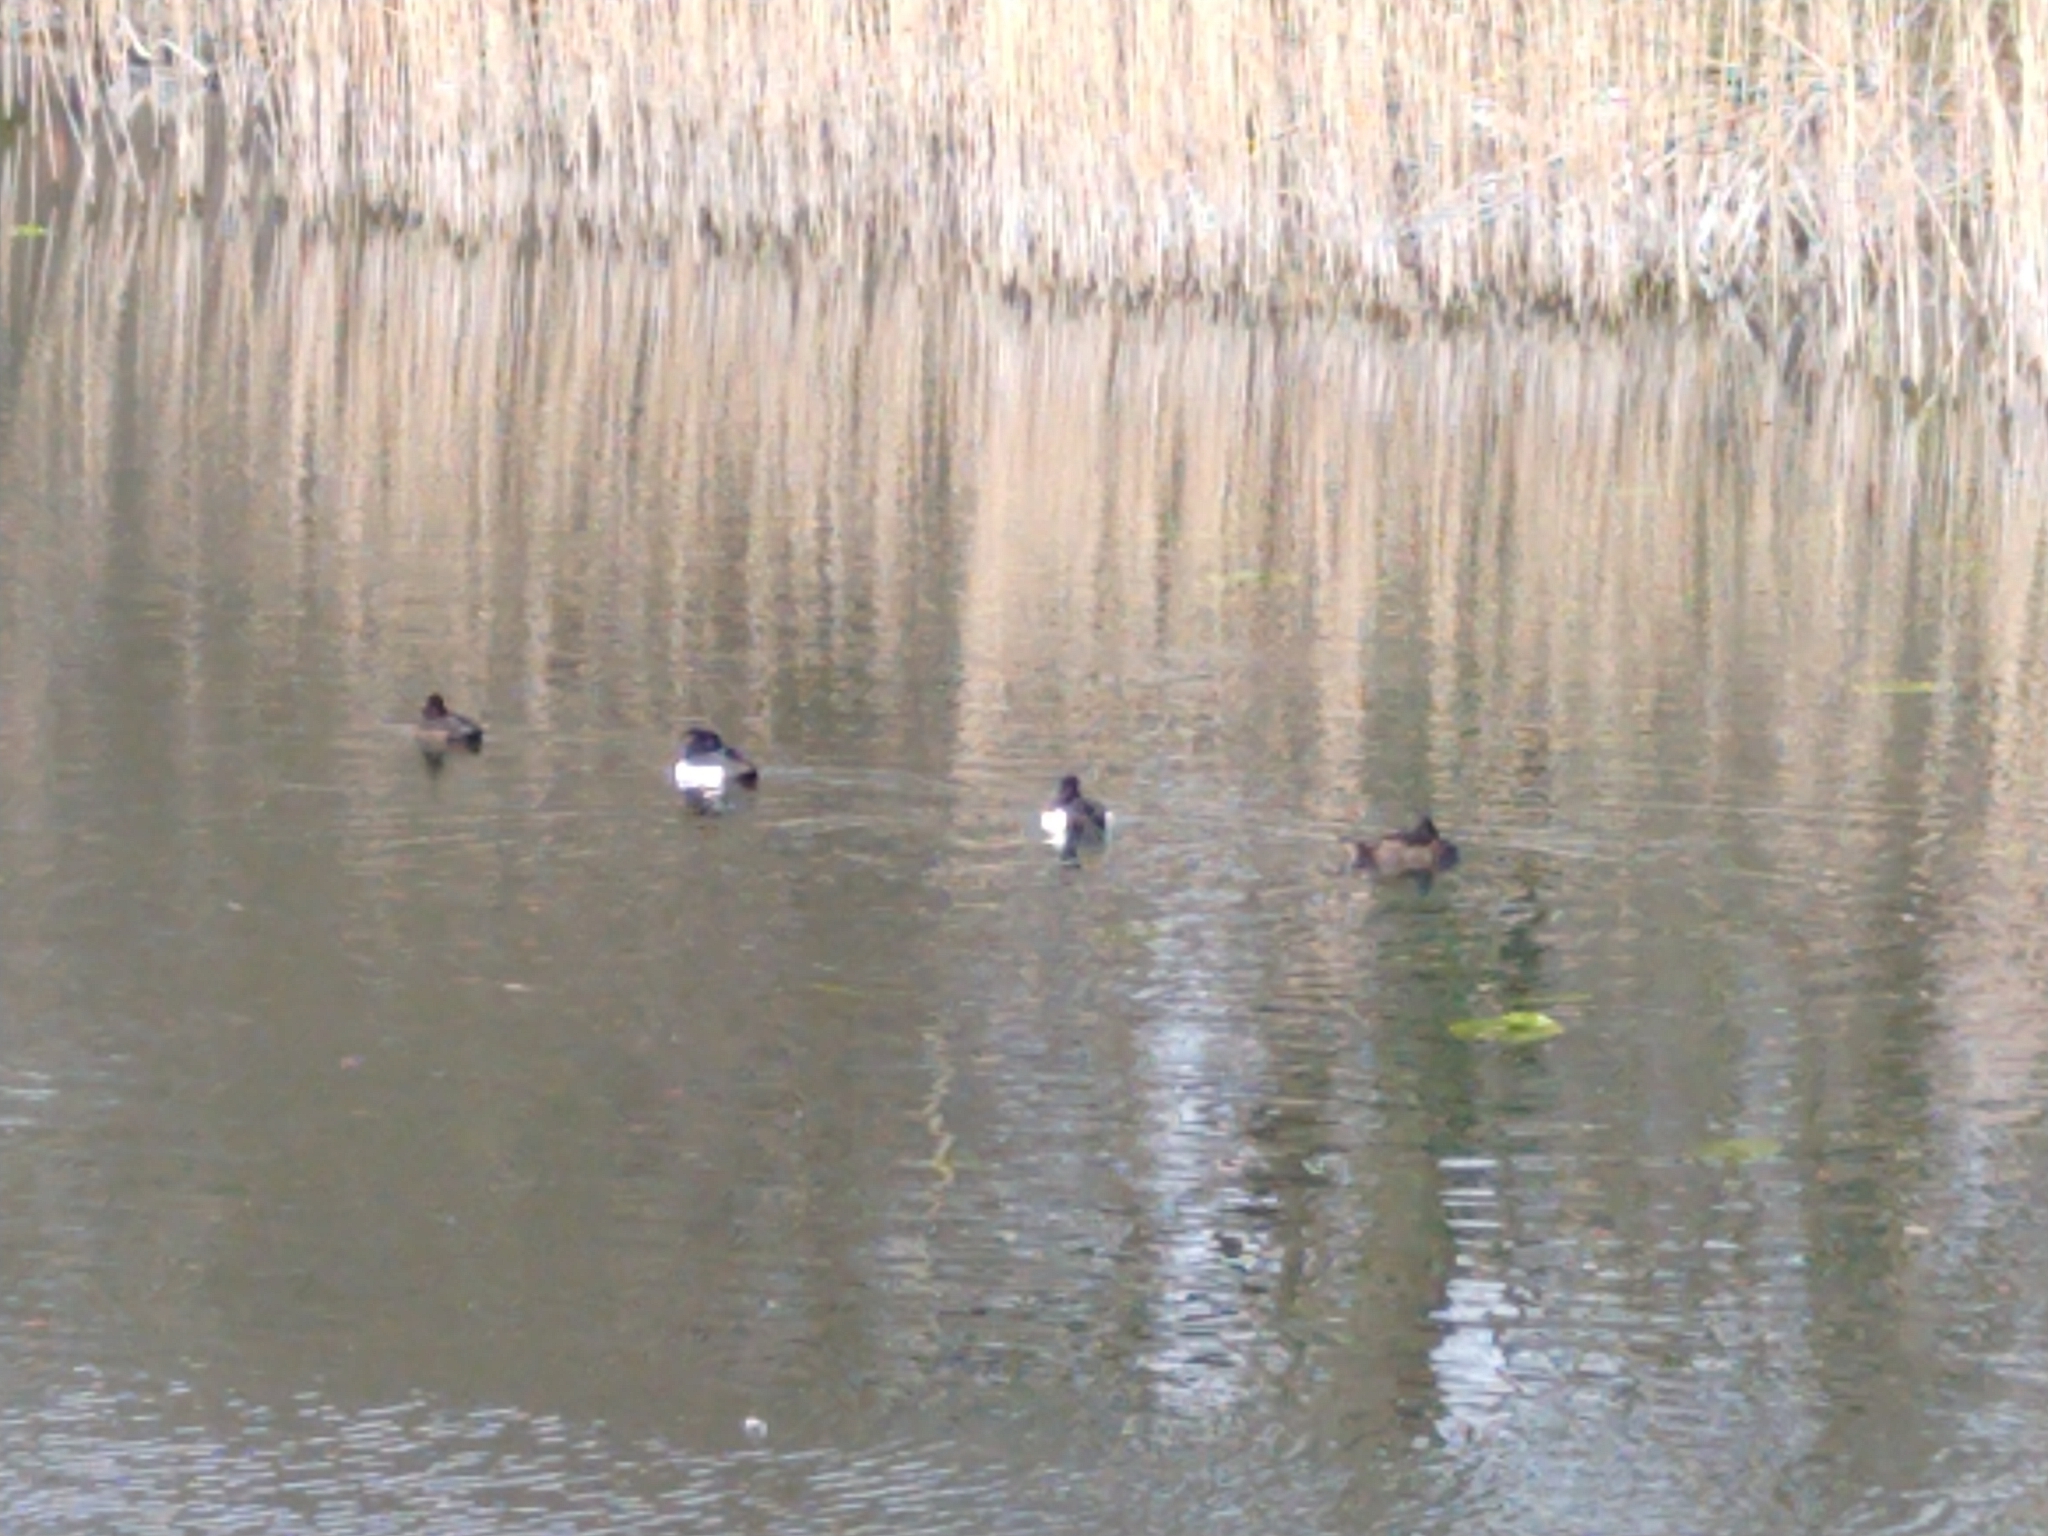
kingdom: Animalia
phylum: Chordata
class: Aves
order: Anseriformes
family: Anatidae
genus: Aythya
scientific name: Aythya fuligula
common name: Tufted duck
